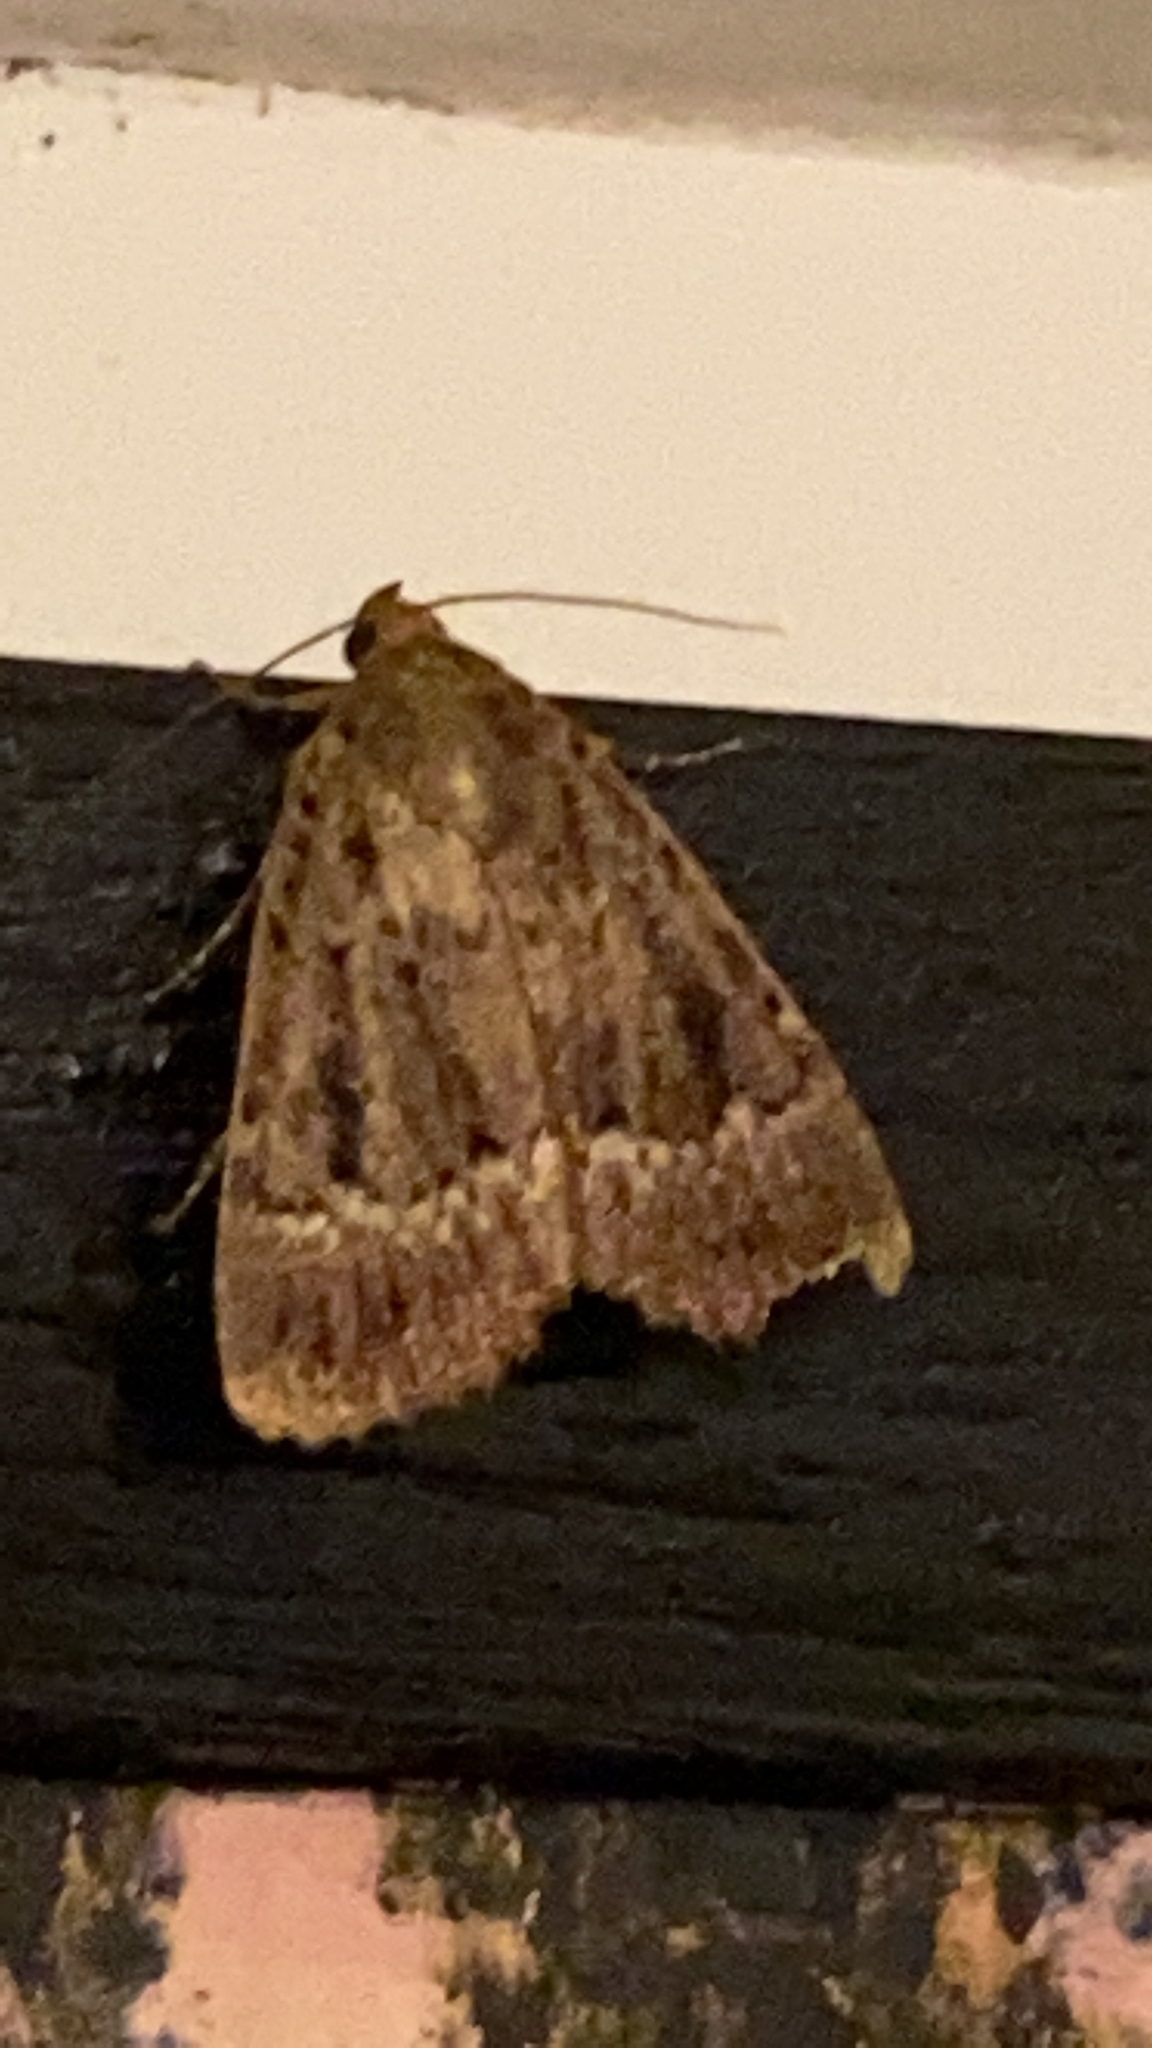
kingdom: Animalia
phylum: Arthropoda
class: Insecta
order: Lepidoptera
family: Noctuidae
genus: Amphipyra
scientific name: Amphipyra pyramidea
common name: Copper underwing
